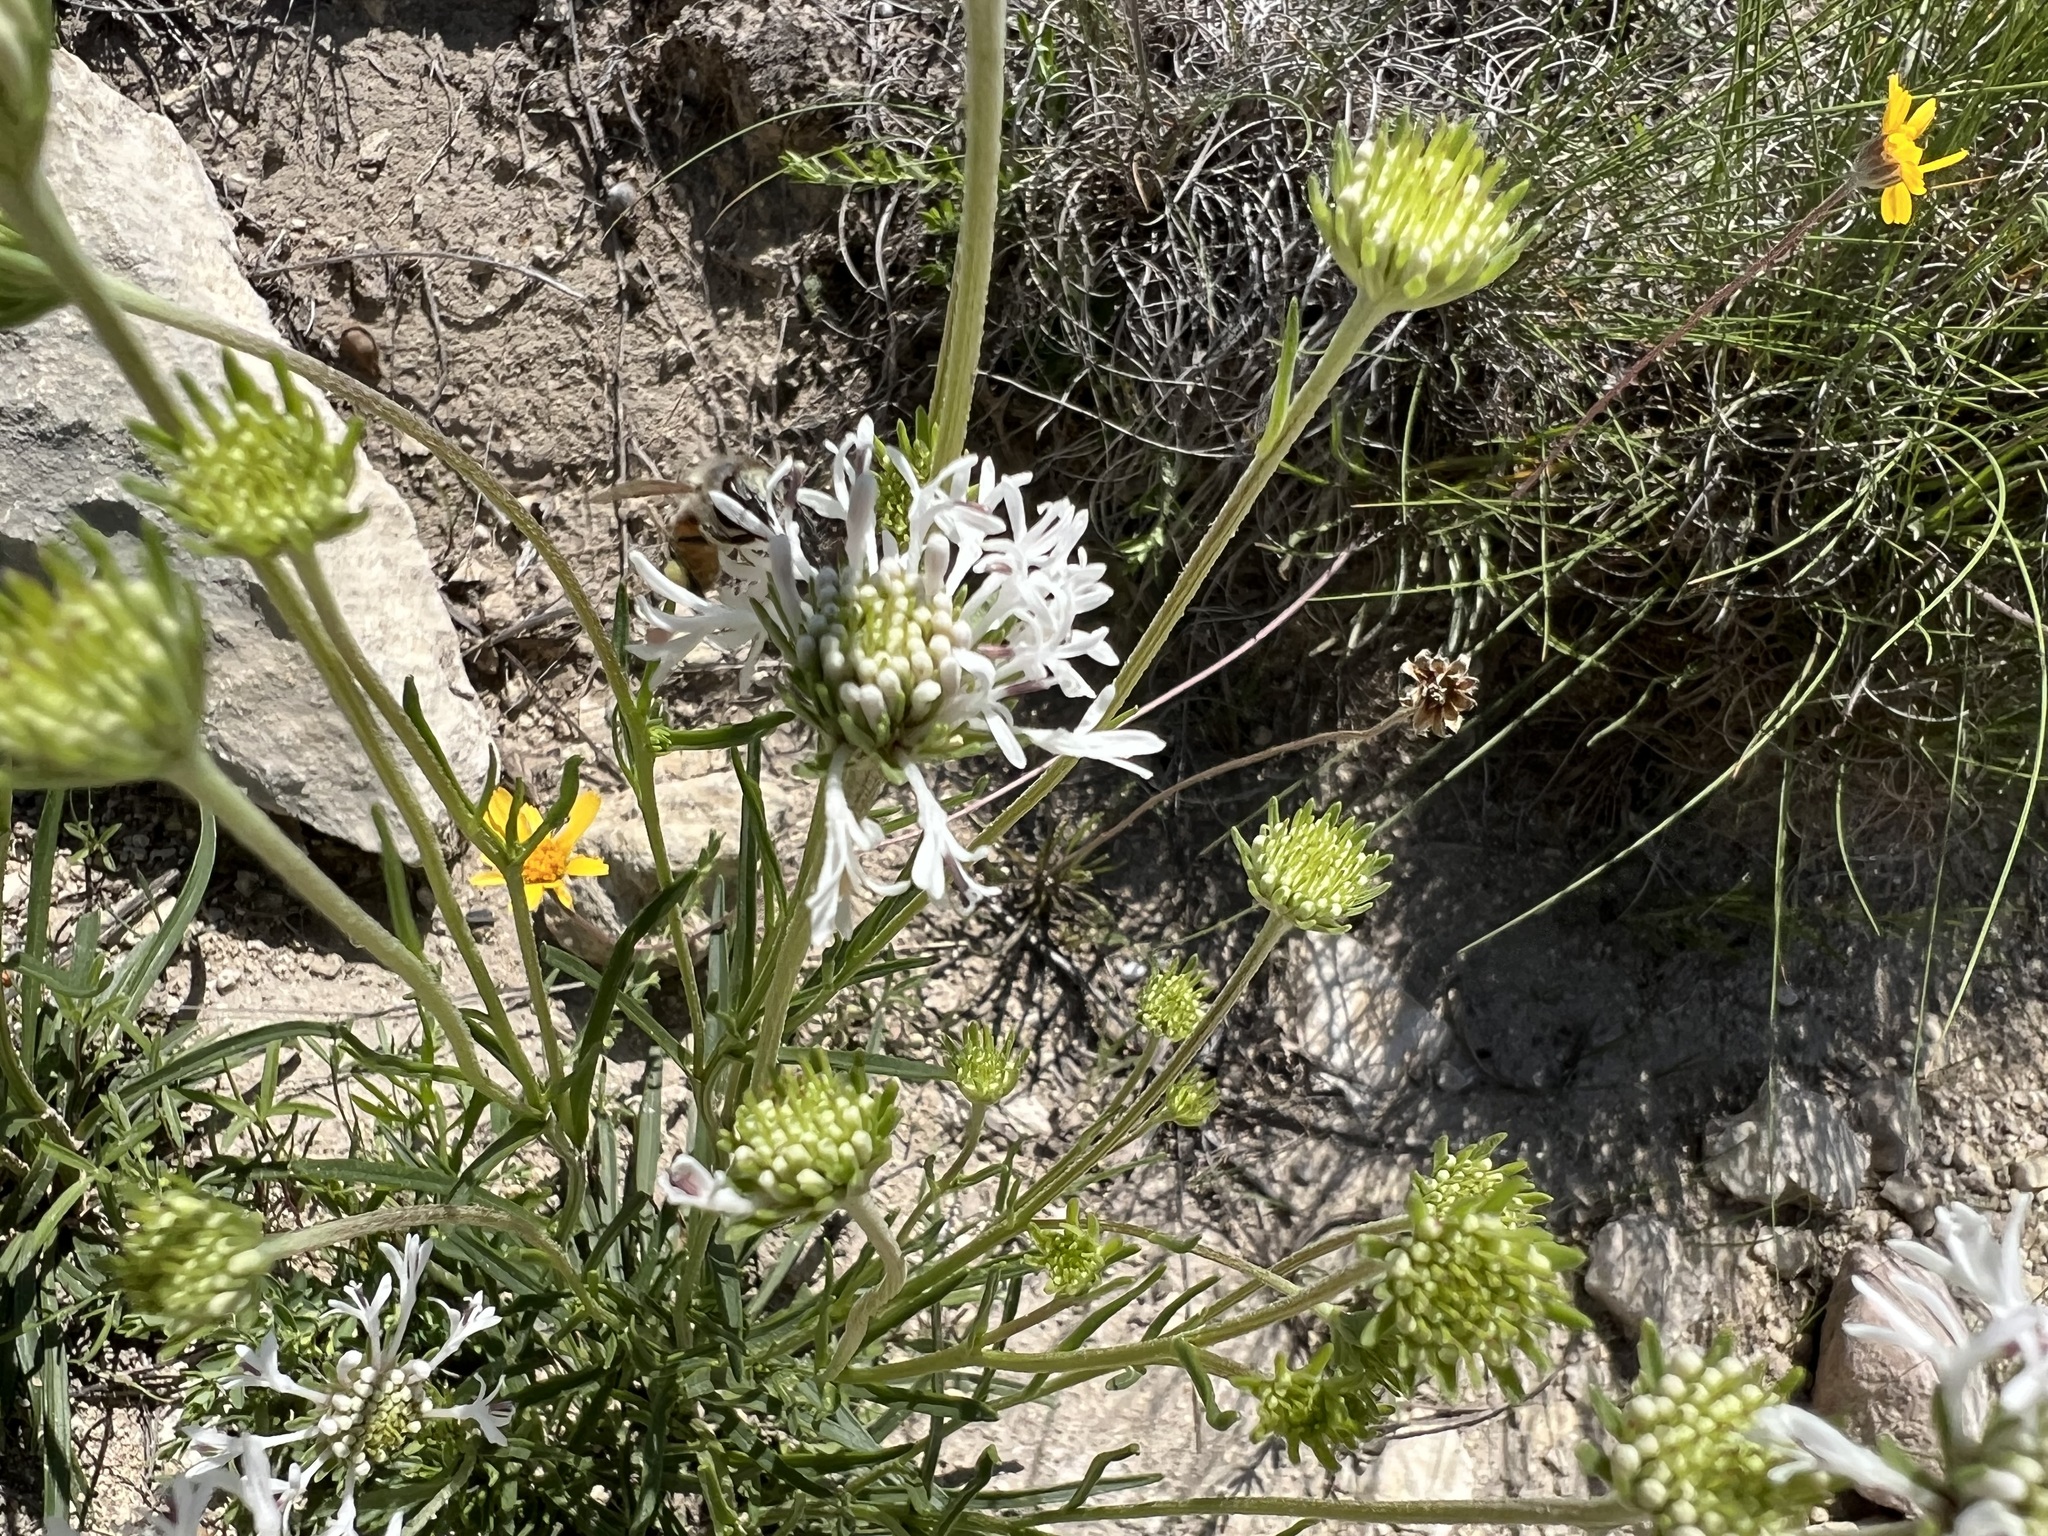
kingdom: Animalia
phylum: Arthropoda
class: Insecta
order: Hymenoptera
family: Apidae
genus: Apis
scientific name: Apis mellifera
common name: Honey bee
